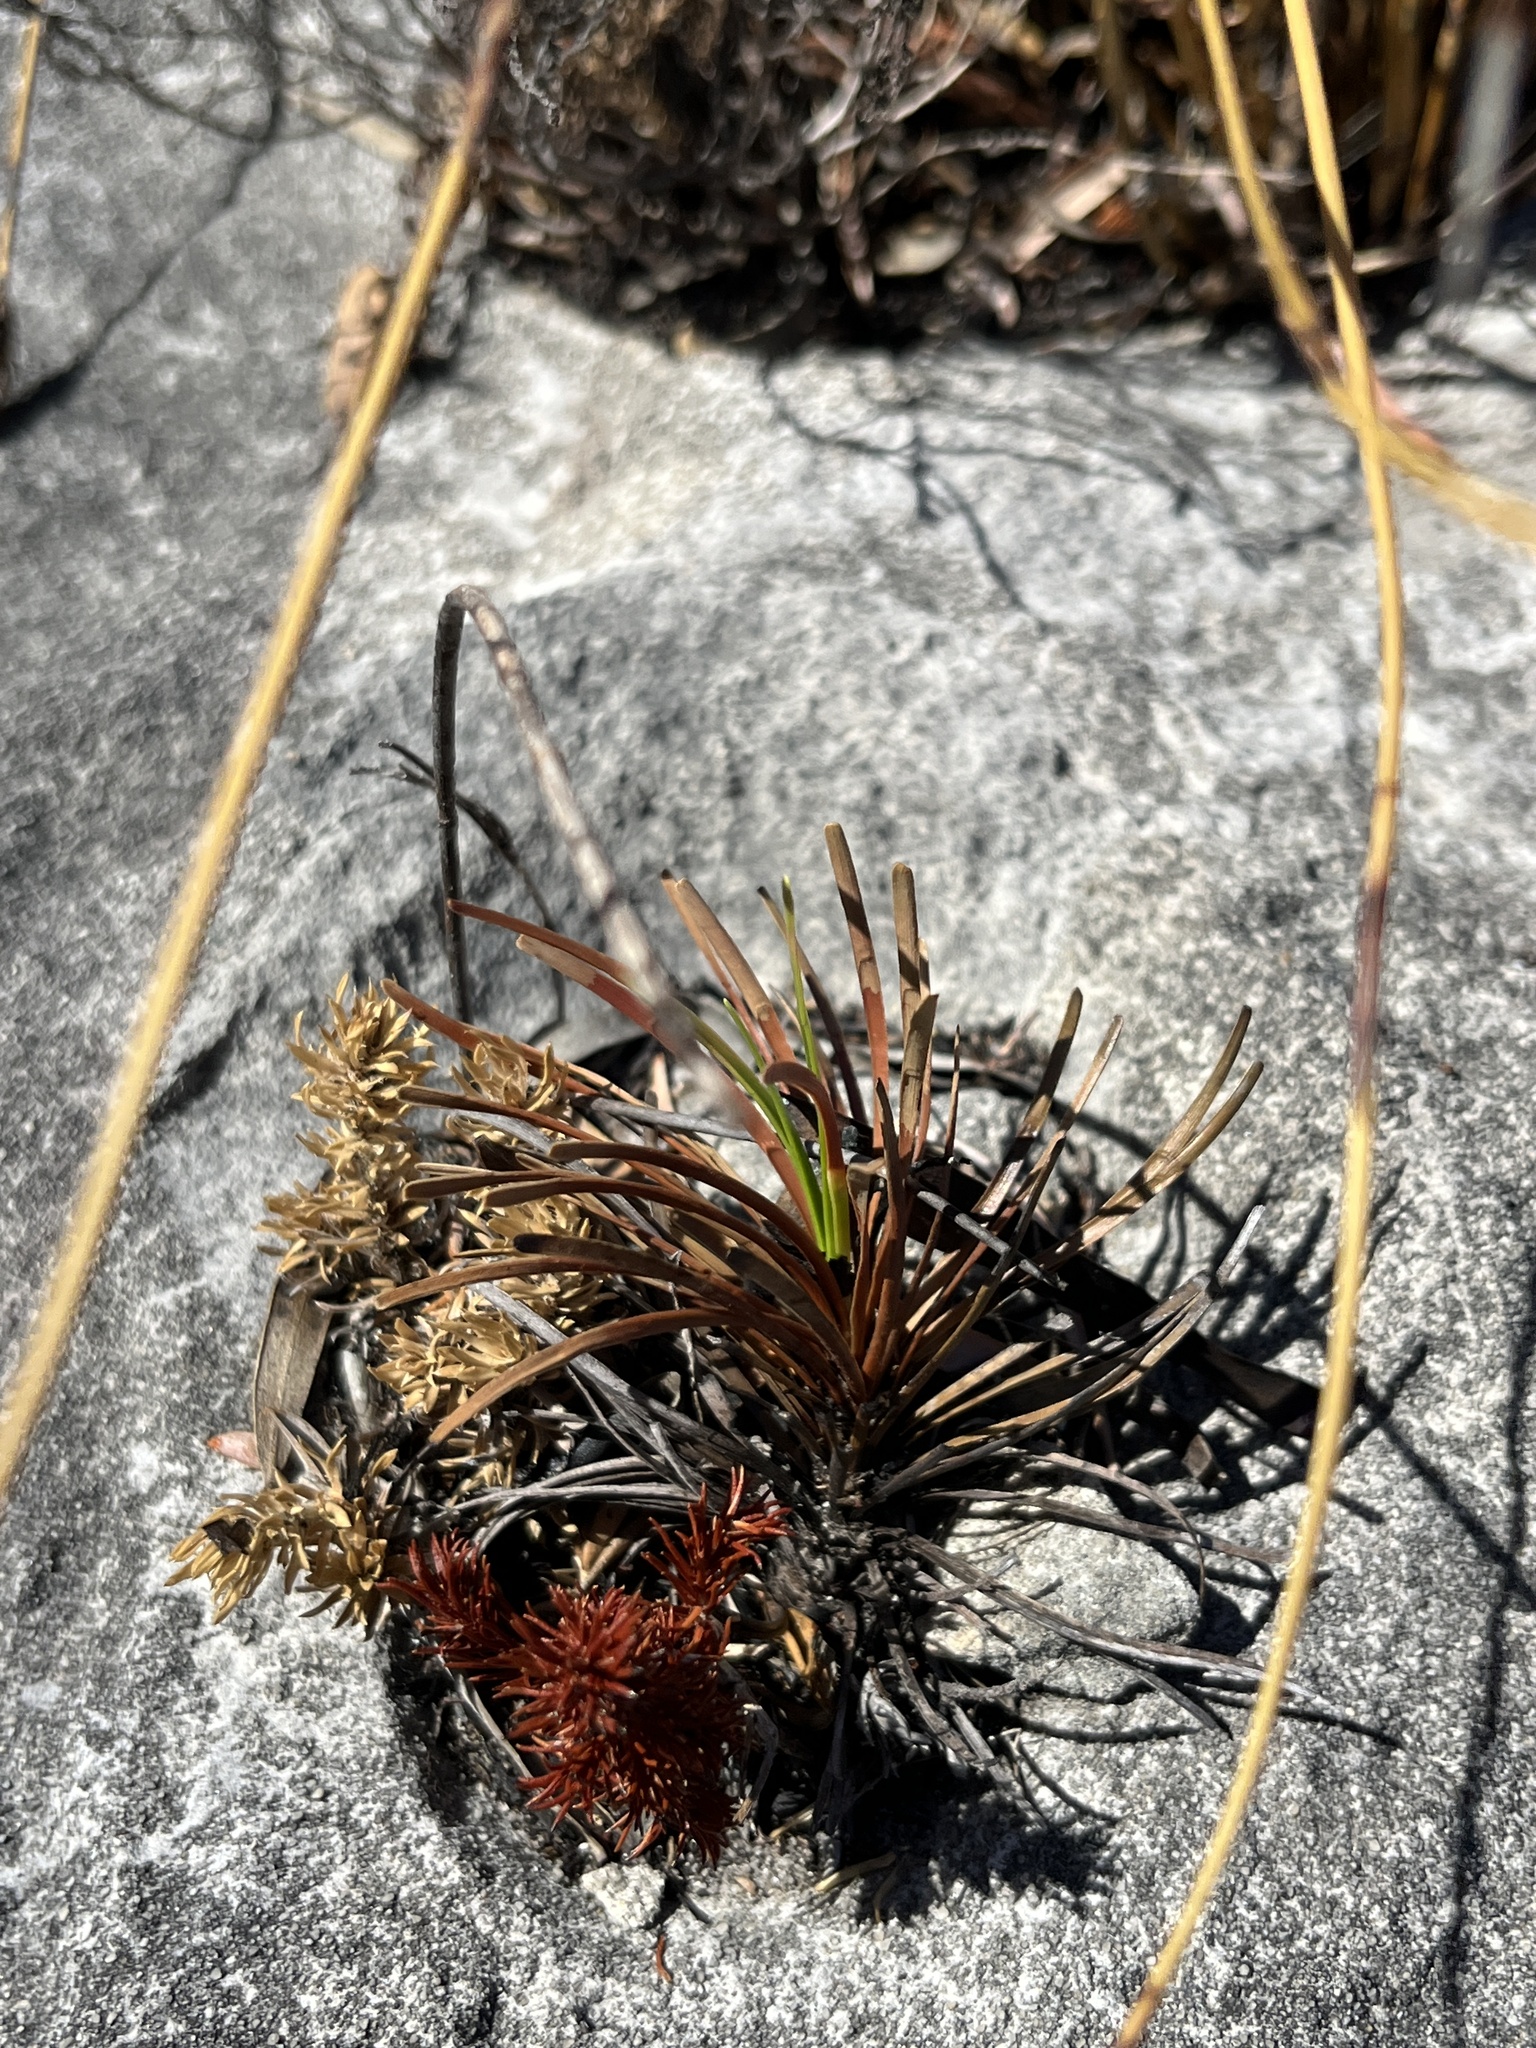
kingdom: Plantae
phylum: Tracheophyta
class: Liliopsida
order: Poales
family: Cyperaceae
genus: Ficinia
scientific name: Ficinia praemorsa
